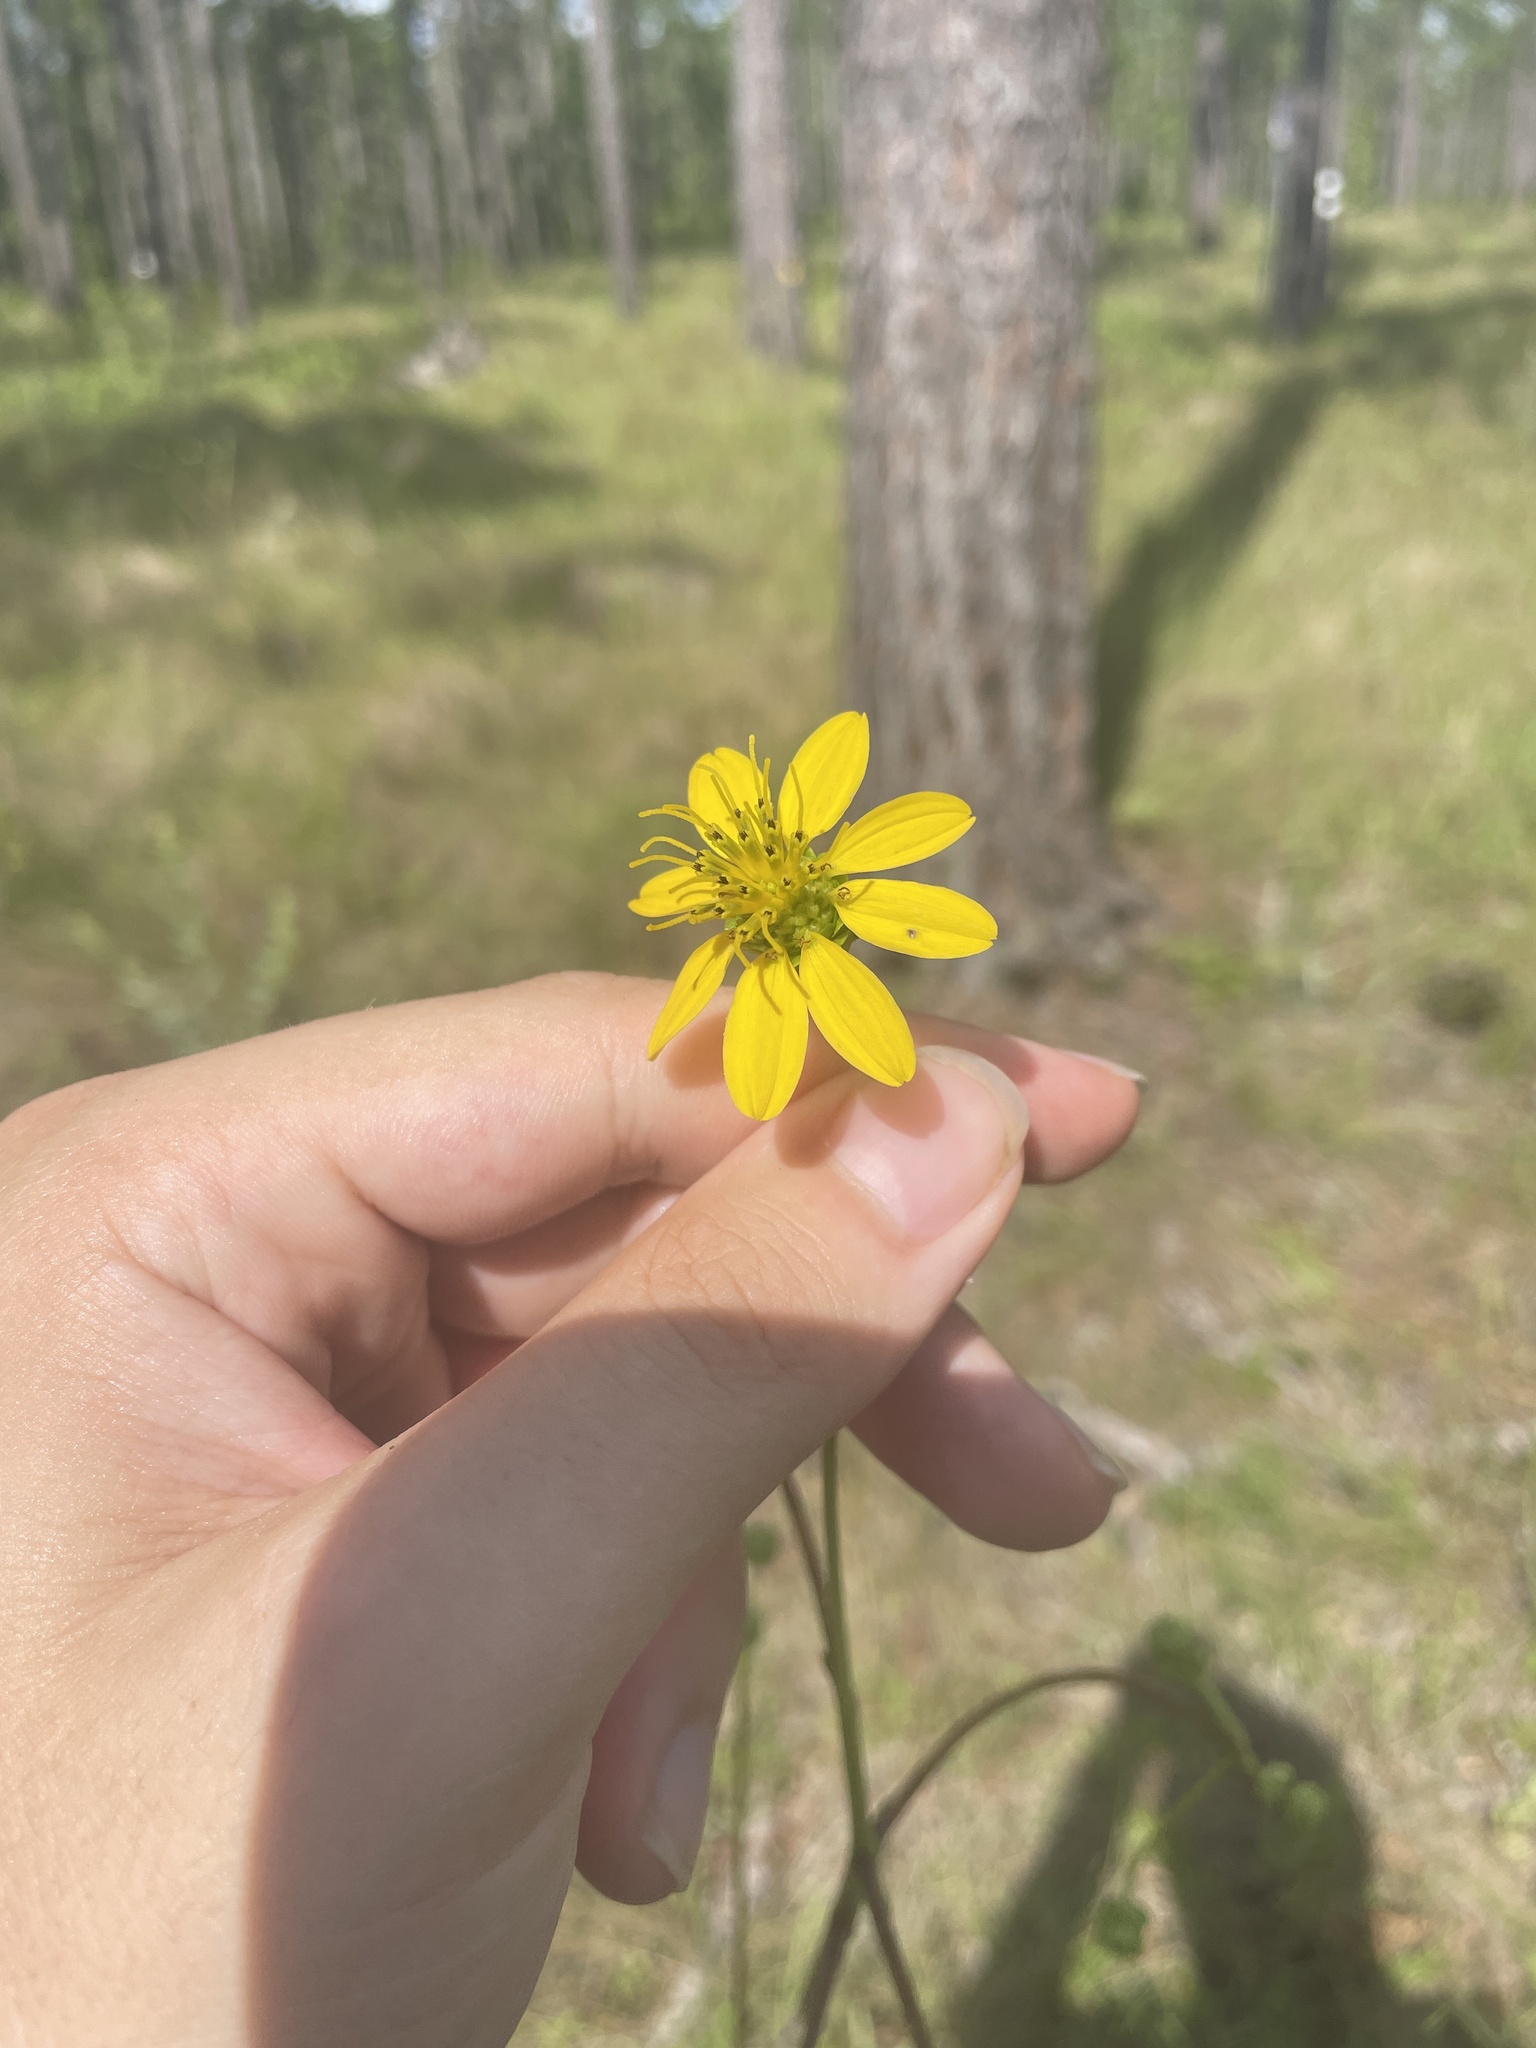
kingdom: Plantae
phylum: Tracheophyta
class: Magnoliopsida
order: Asterales
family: Asteraceae
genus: Silphium
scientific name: Silphium compositum
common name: Lesser basal-leaf rosinweed
